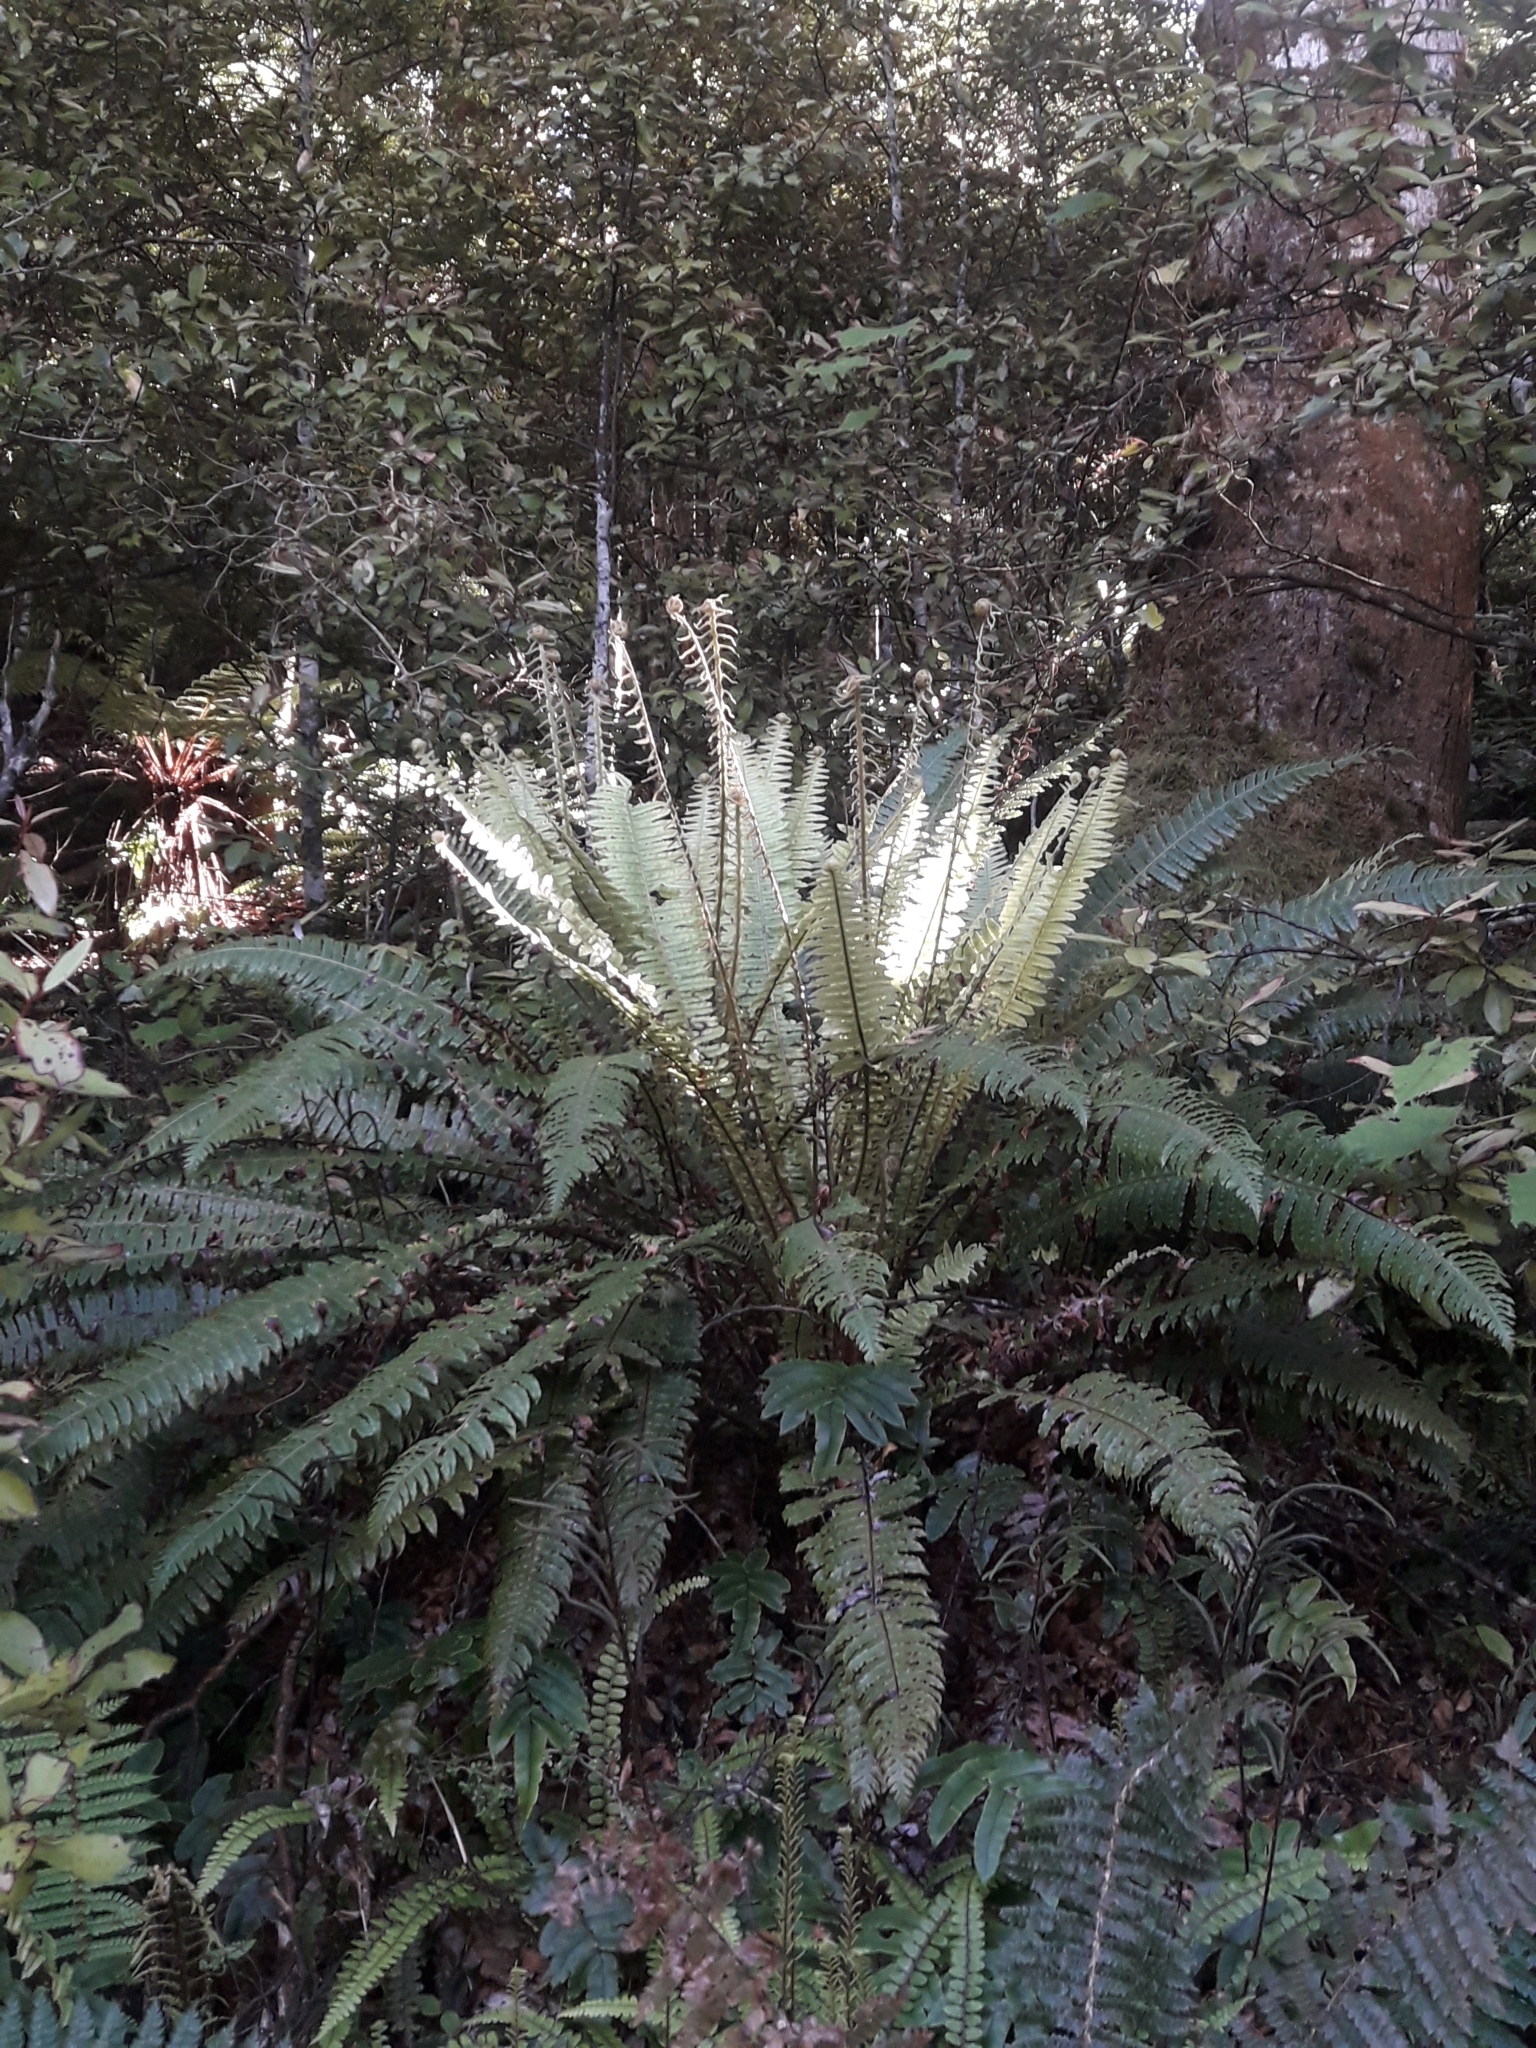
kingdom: Plantae
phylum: Tracheophyta
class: Polypodiopsida
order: Polypodiales
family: Blechnaceae
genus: Lomaria
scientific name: Lomaria discolor
